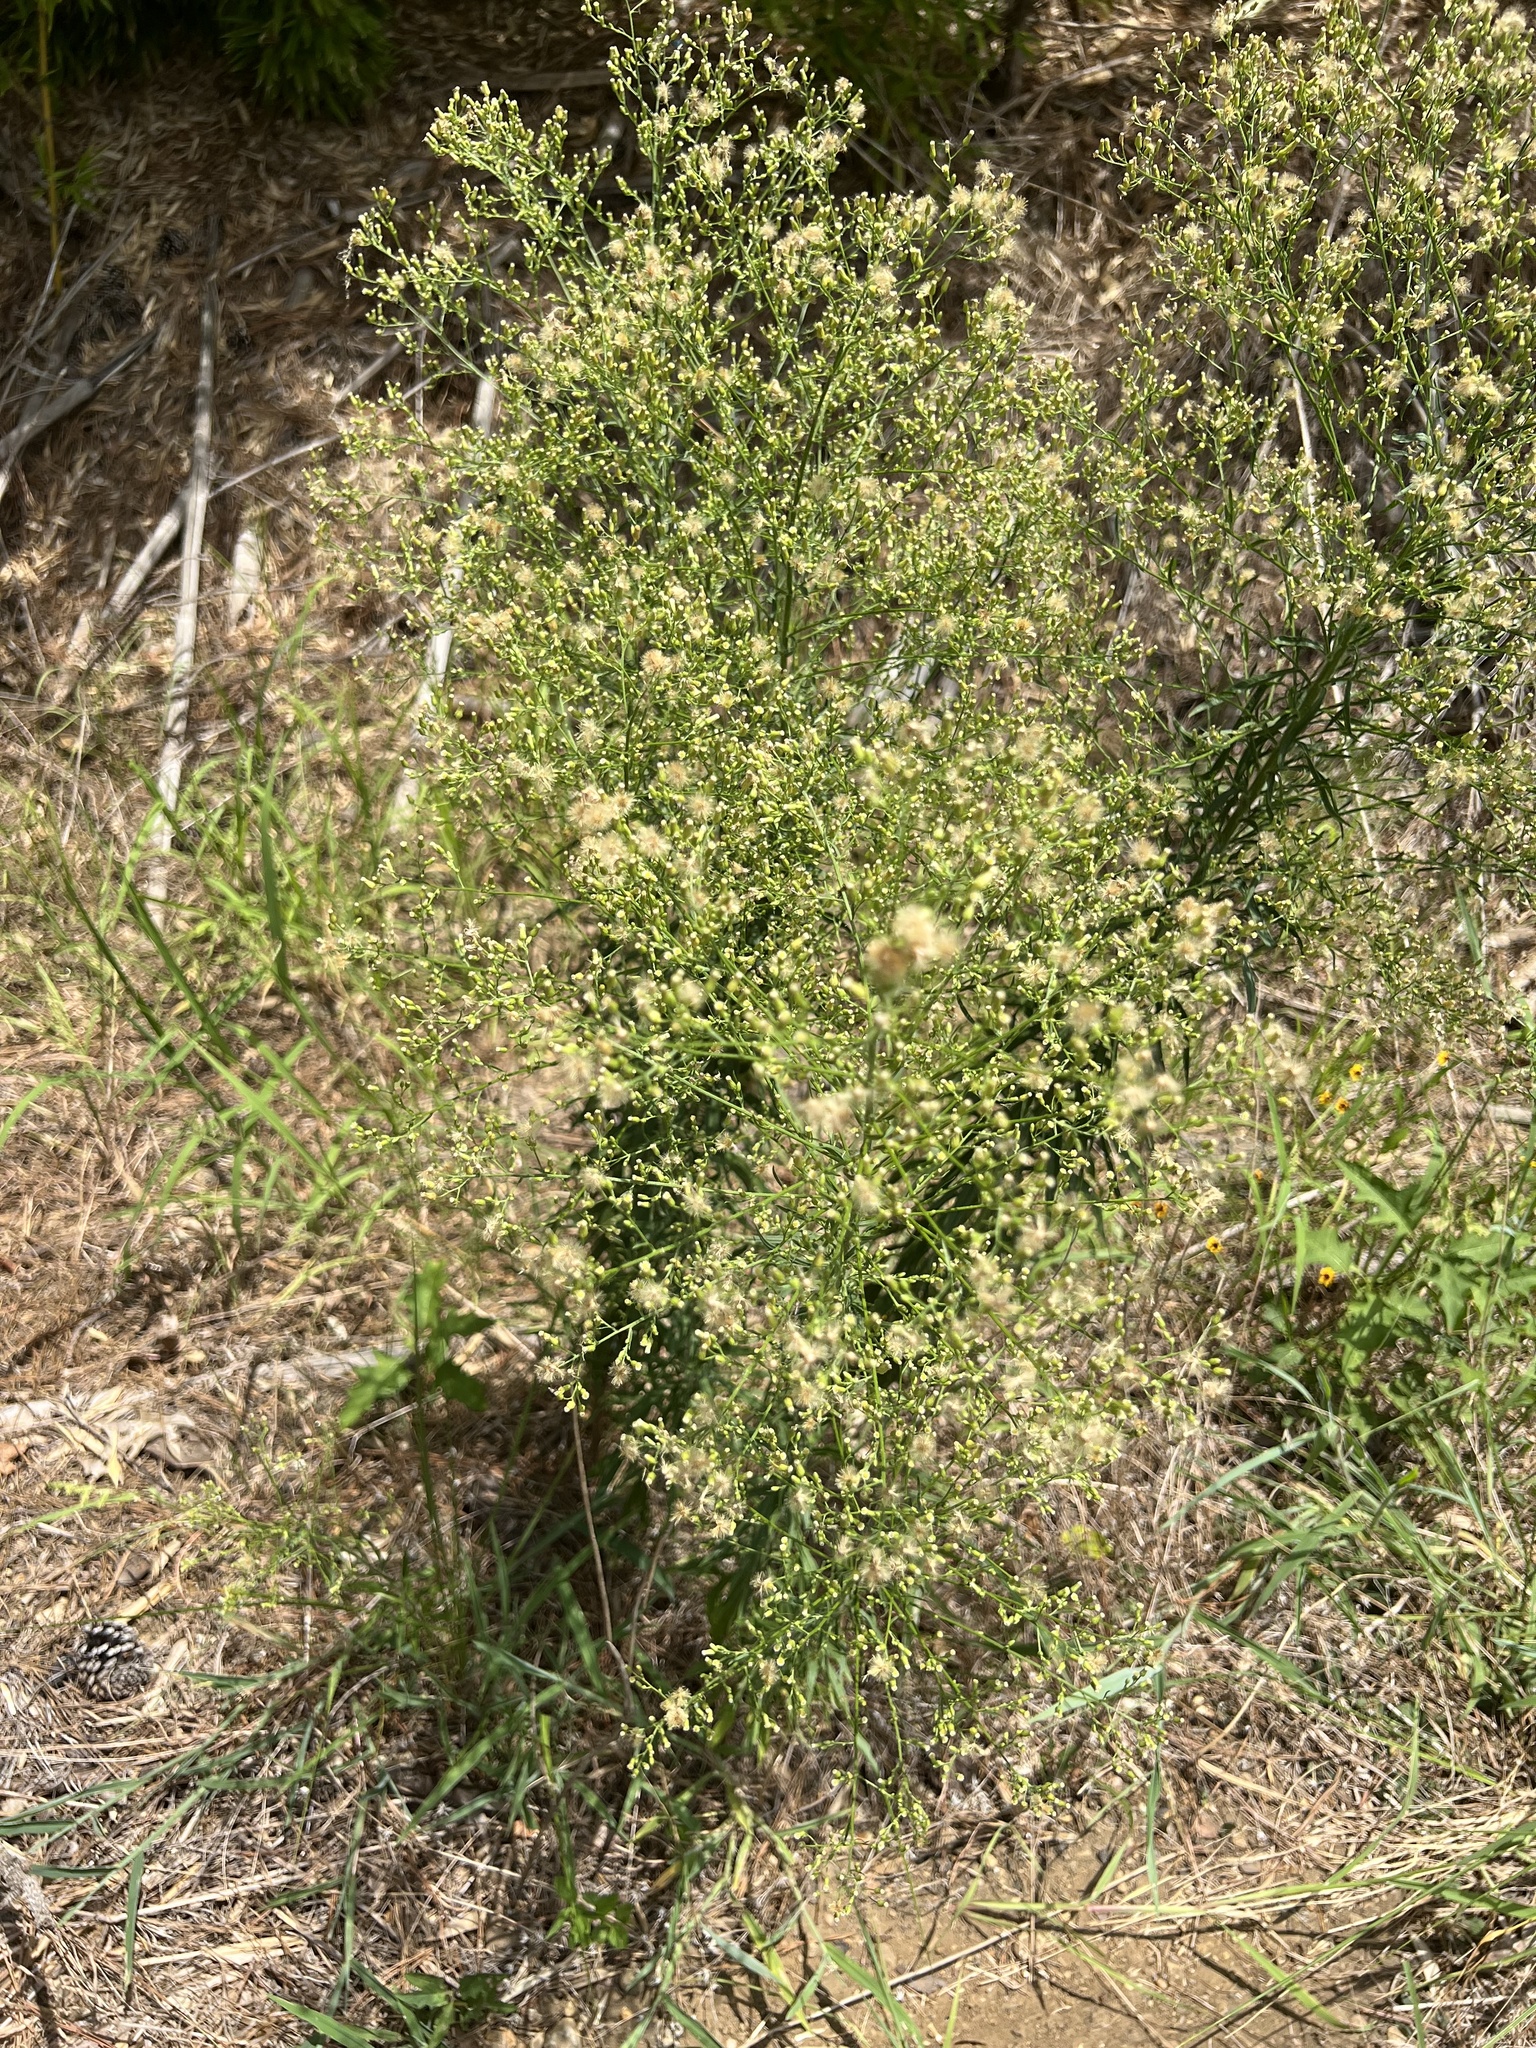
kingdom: Plantae
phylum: Tracheophyta
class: Magnoliopsida
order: Asterales
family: Asteraceae
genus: Erigeron
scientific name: Erigeron canadensis
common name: Canadian fleabane
